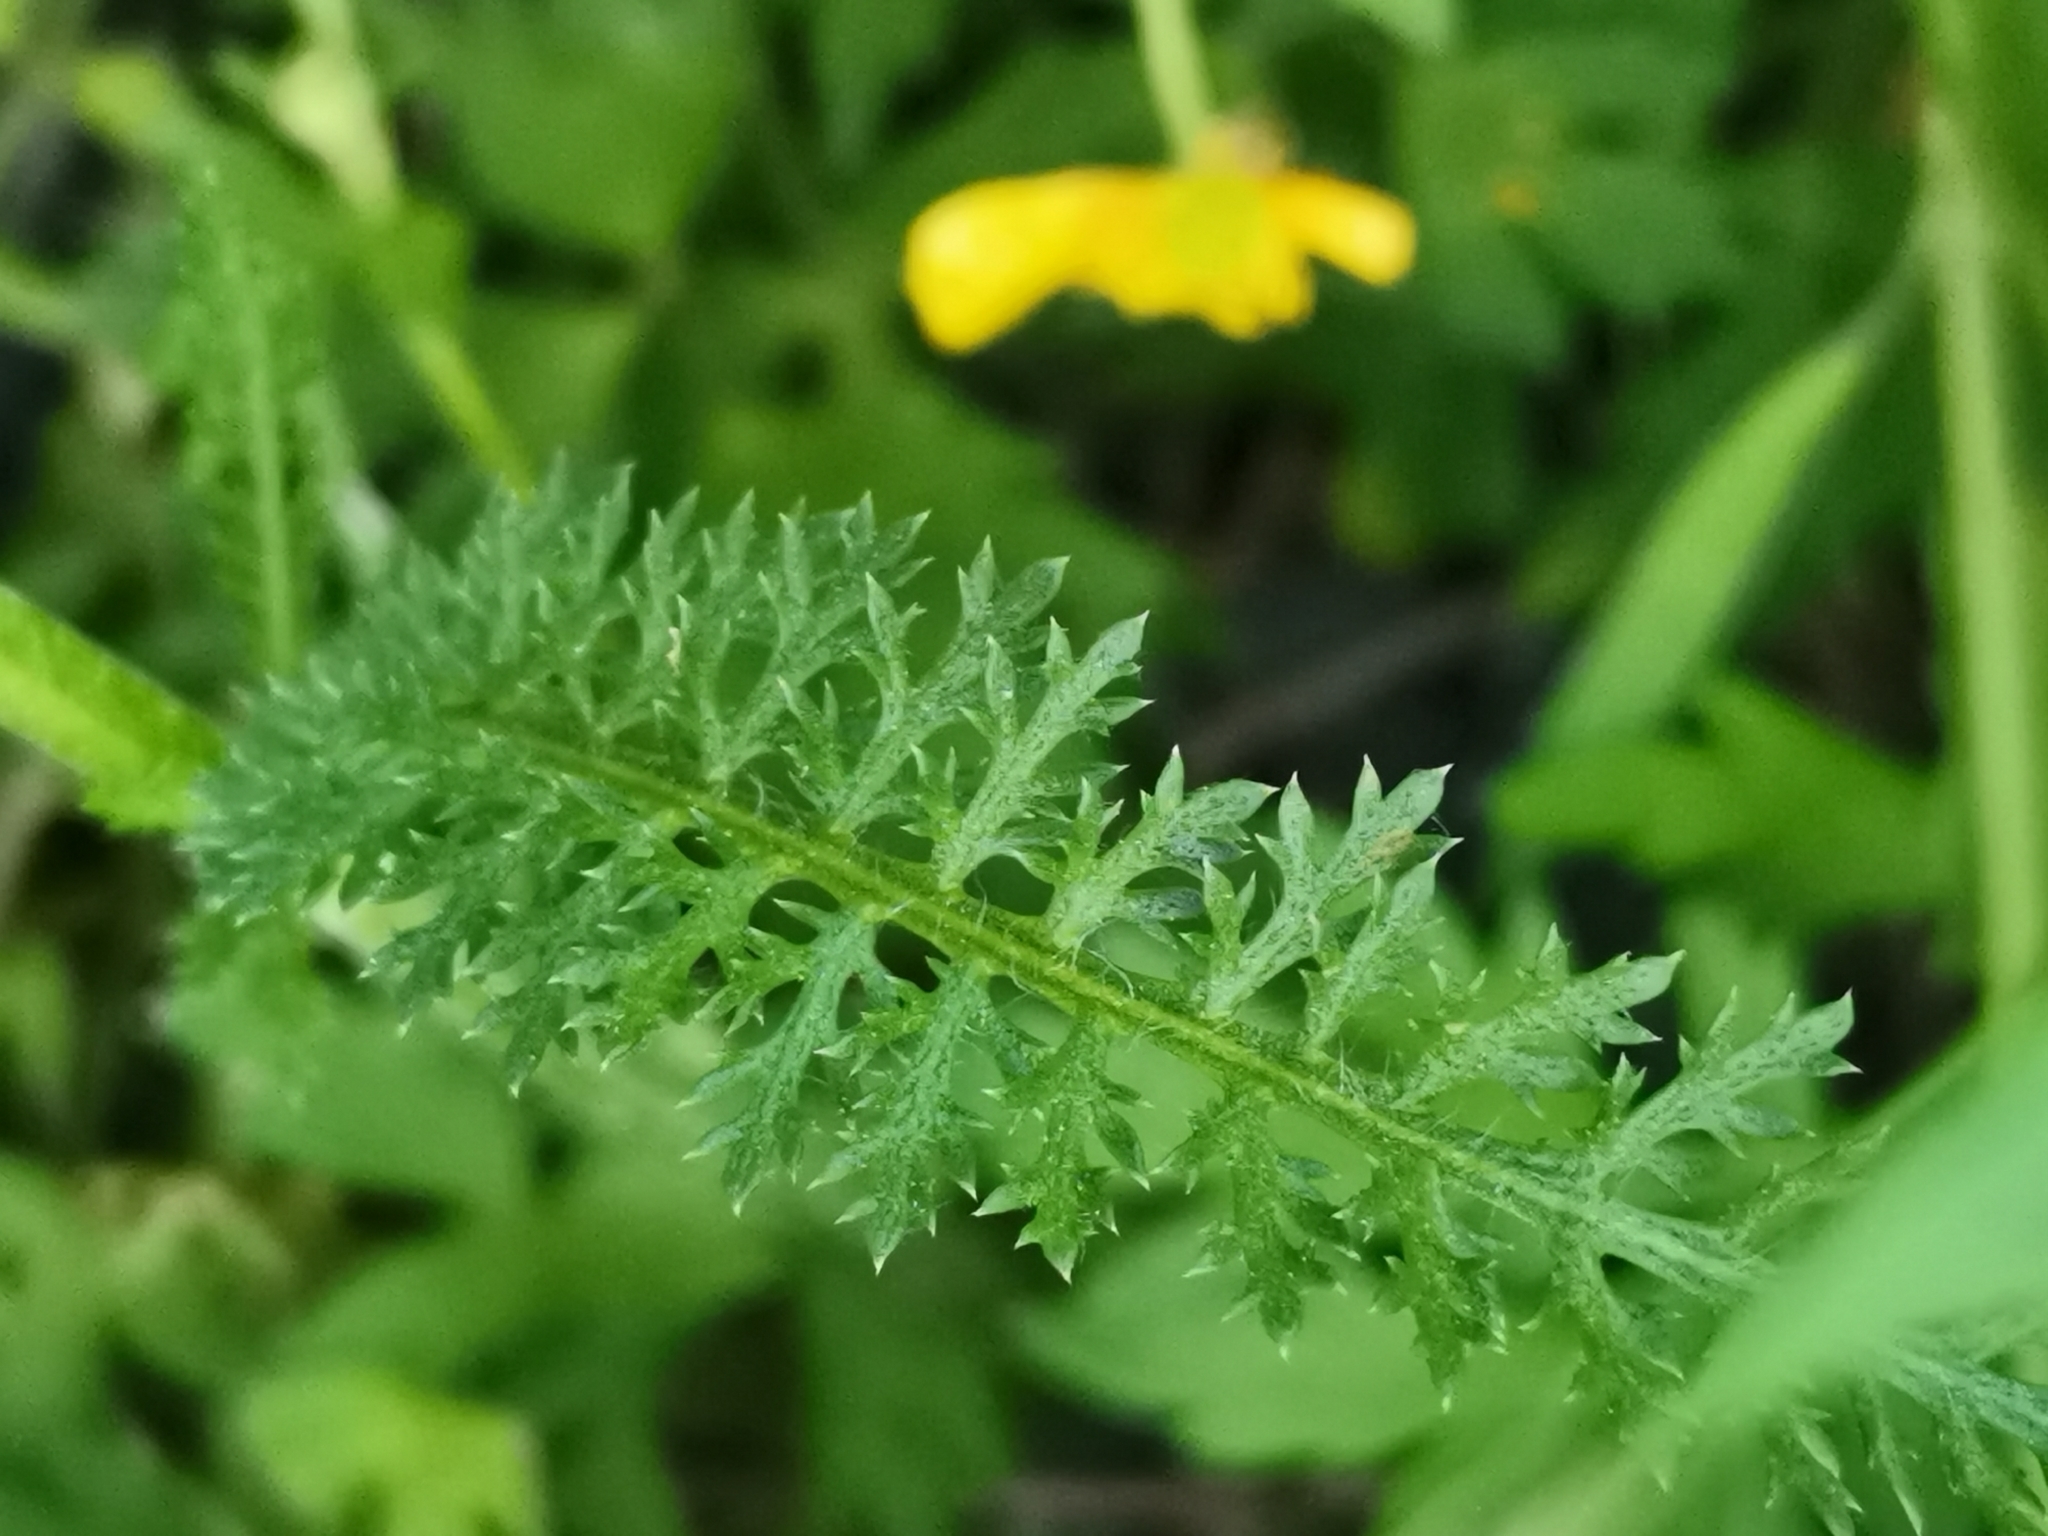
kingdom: Plantae
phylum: Tracheophyta
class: Magnoliopsida
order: Asterales
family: Asteraceae
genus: Achillea
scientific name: Achillea millefolium
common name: Yarrow
